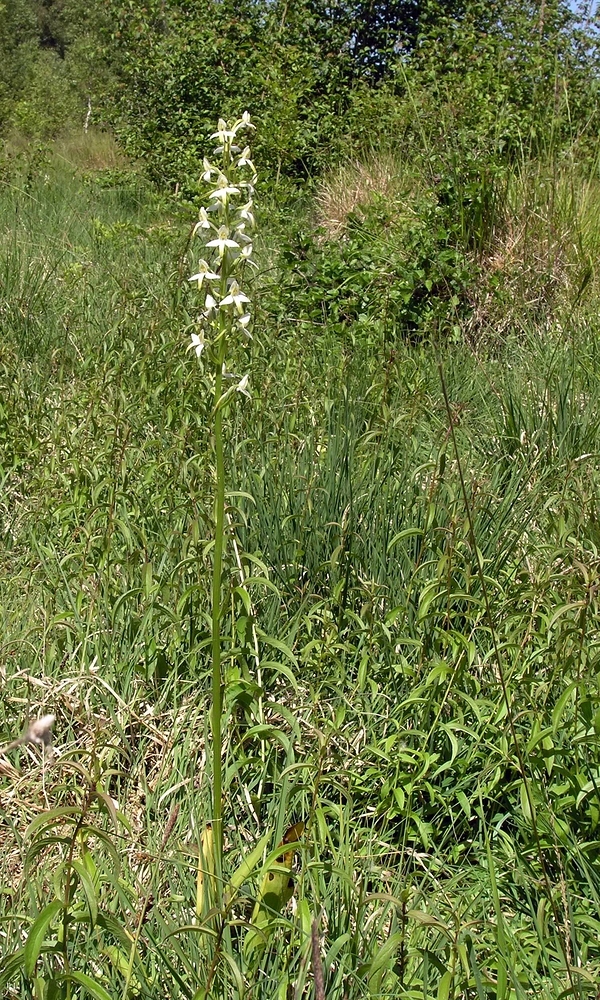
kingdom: Plantae
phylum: Tracheophyta
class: Liliopsida
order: Asparagales
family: Orchidaceae
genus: Platanthera
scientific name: Platanthera bifolia
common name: Lesser butterfly-orchid
